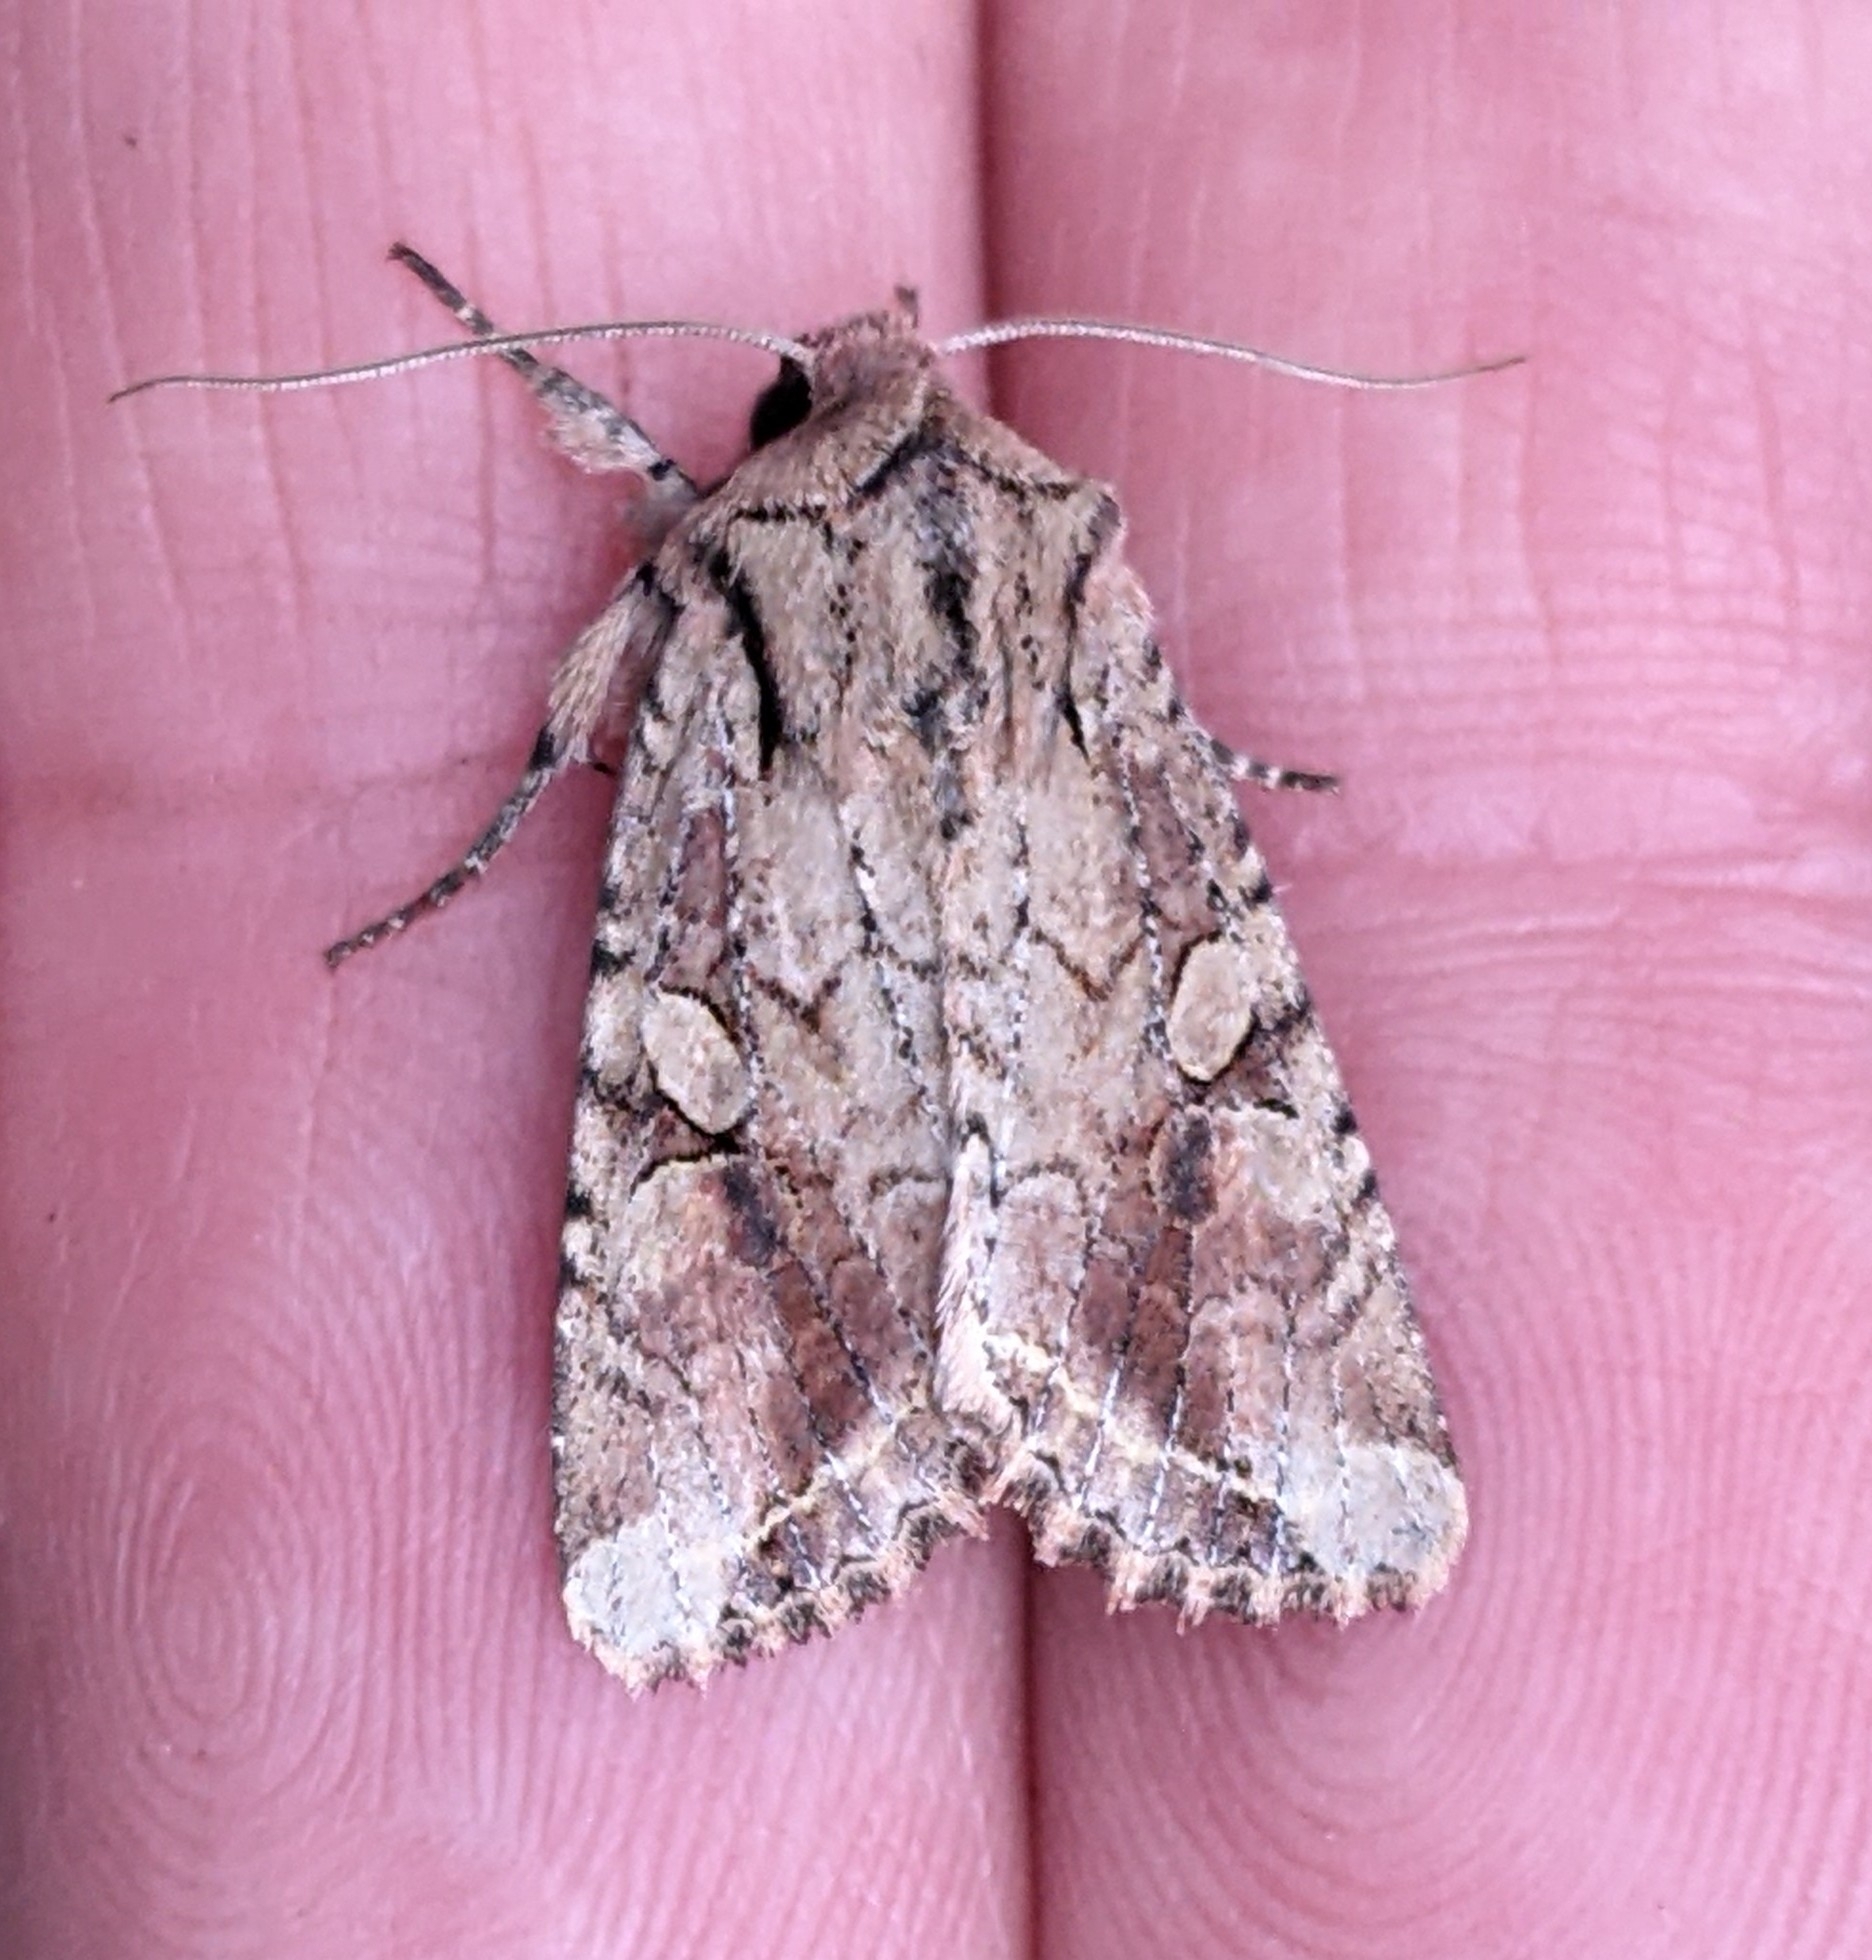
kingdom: Animalia
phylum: Arthropoda
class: Insecta
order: Lepidoptera
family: Noctuidae
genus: Egira
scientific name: Egira rubrica
